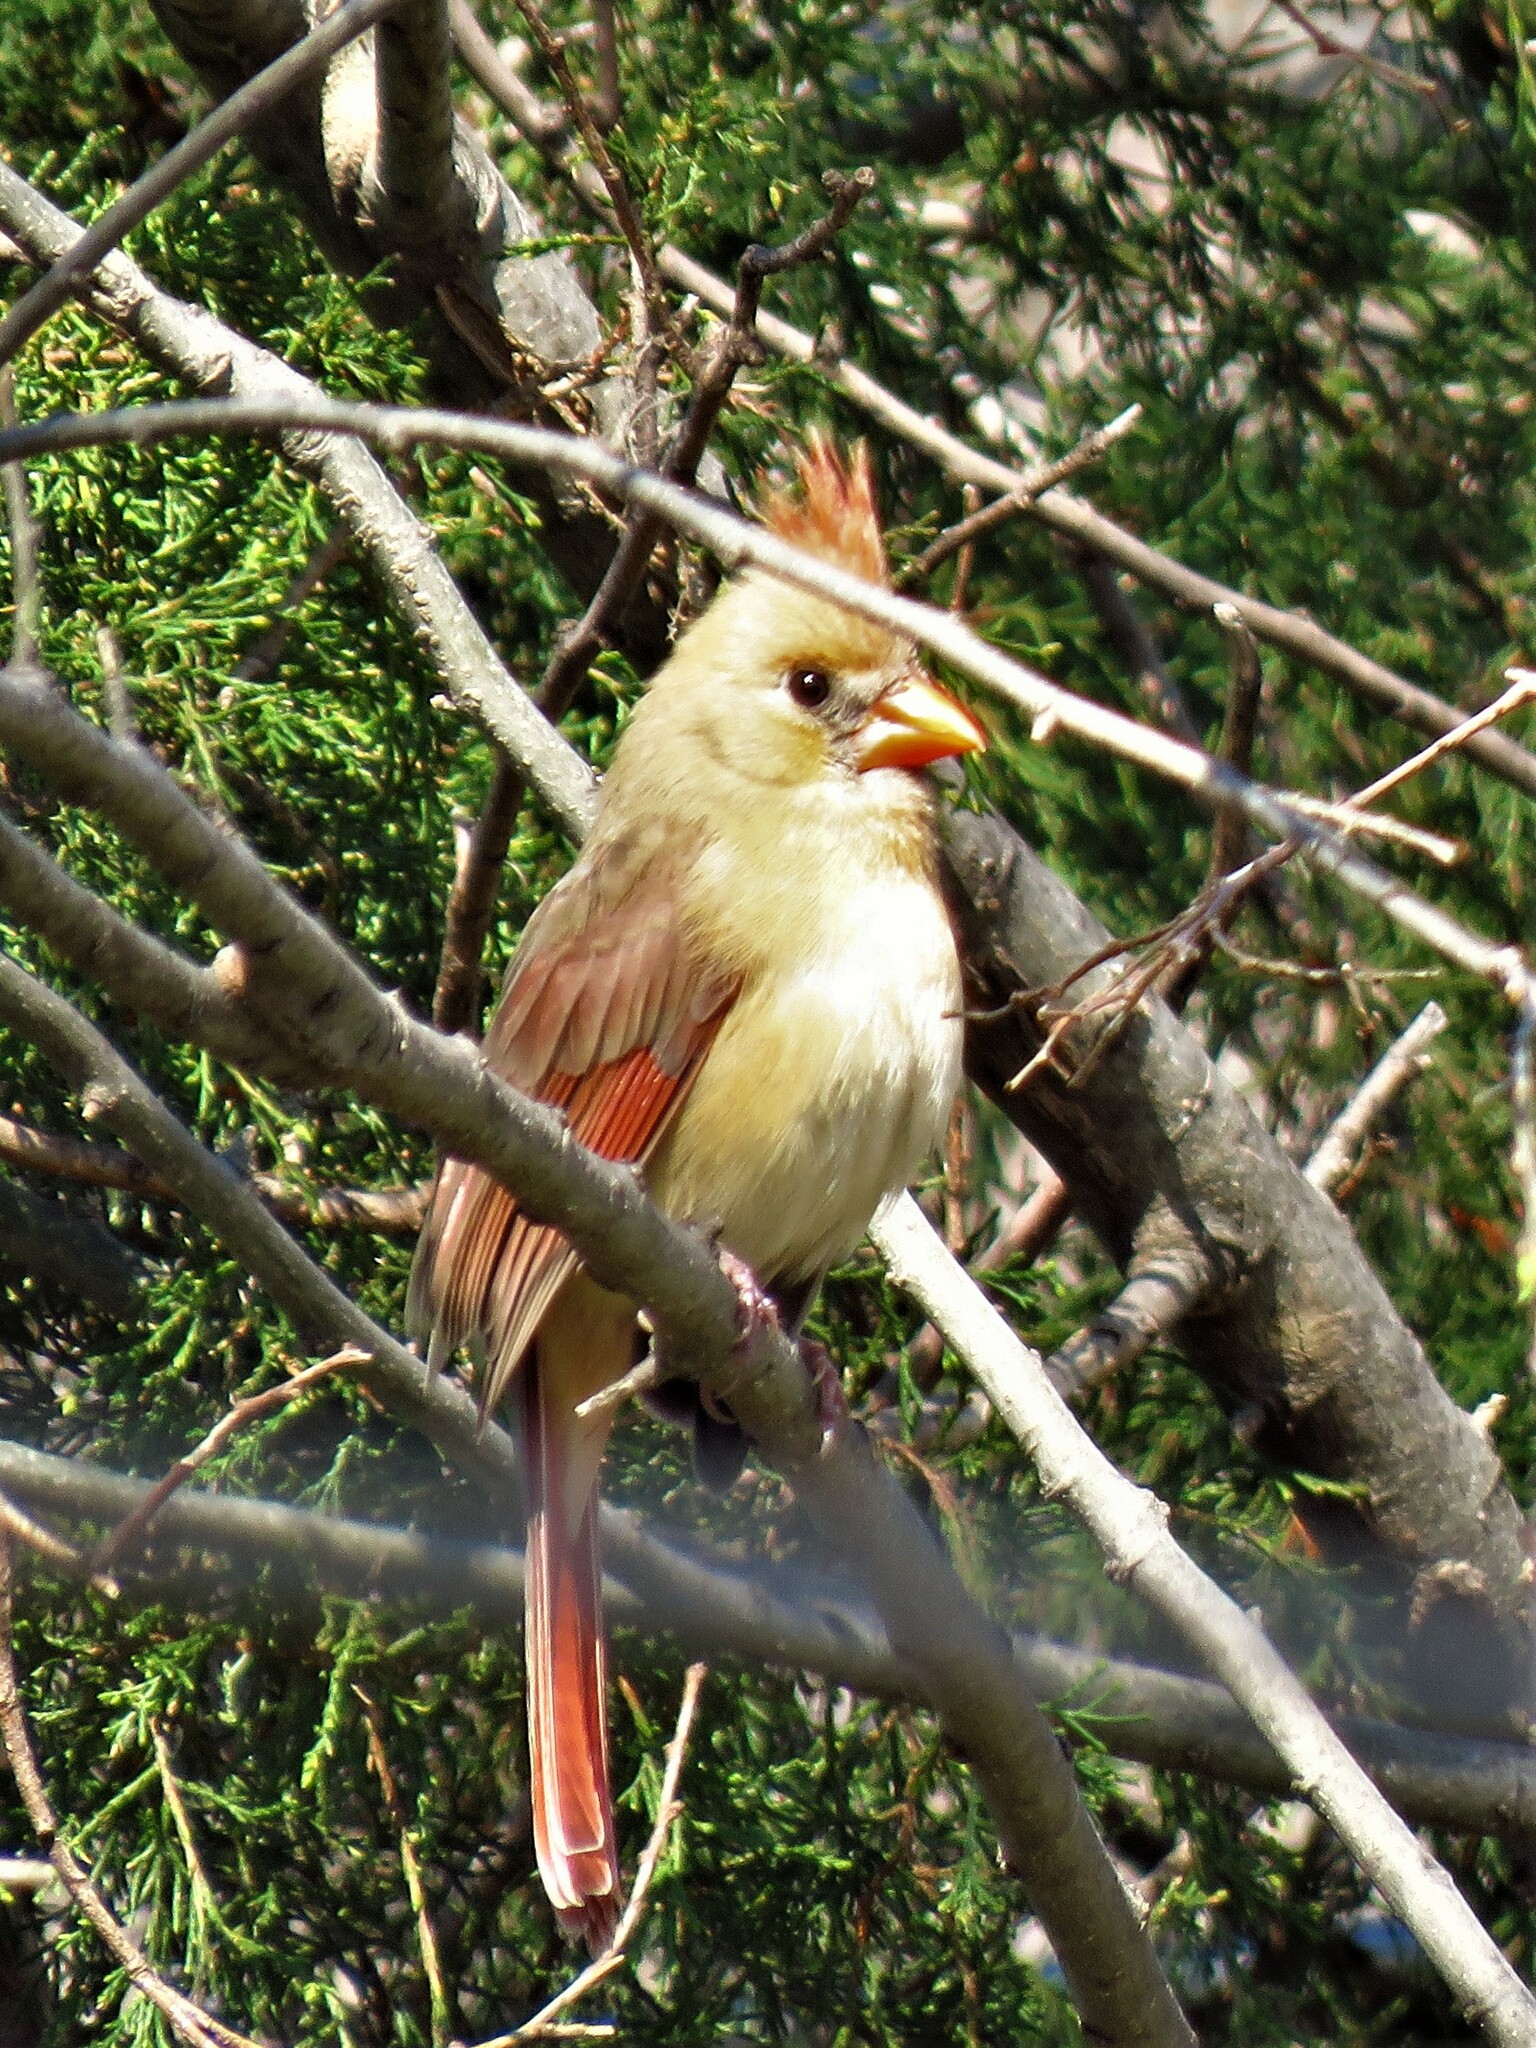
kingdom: Animalia
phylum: Chordata
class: Aves
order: Passeriformes
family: Cardinalidae
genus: Cardinalis
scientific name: Cardinalis cardinalis
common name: Northern cardinal
